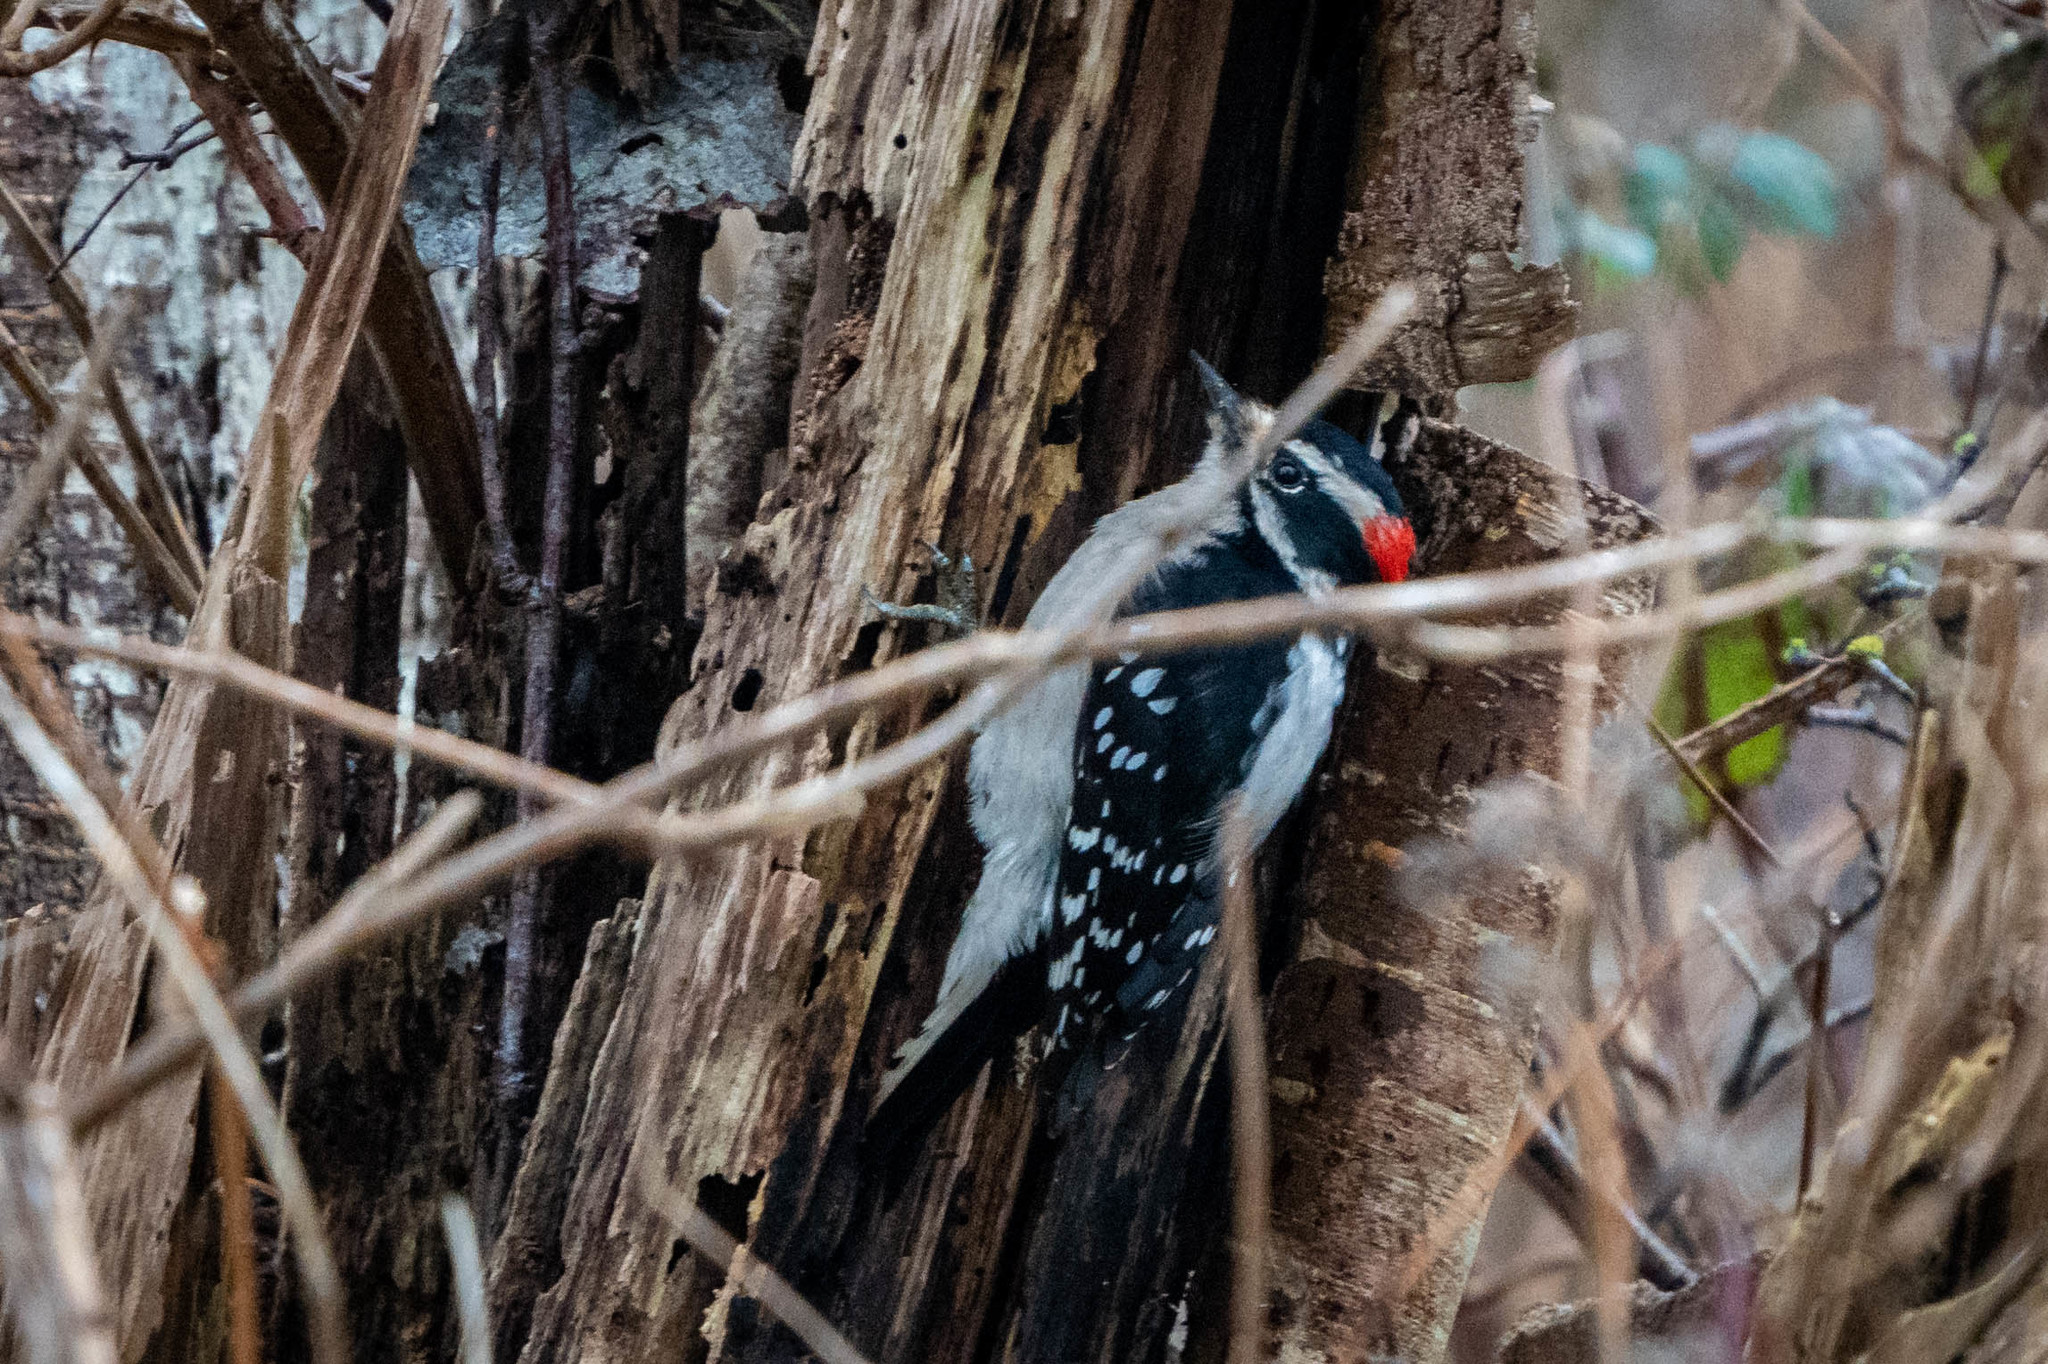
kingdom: Animalia
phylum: Chordata
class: Aves
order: Piciformes
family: Picidae
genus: Dryobates
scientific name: Dryobates pubescens
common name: Downy woodpecker
